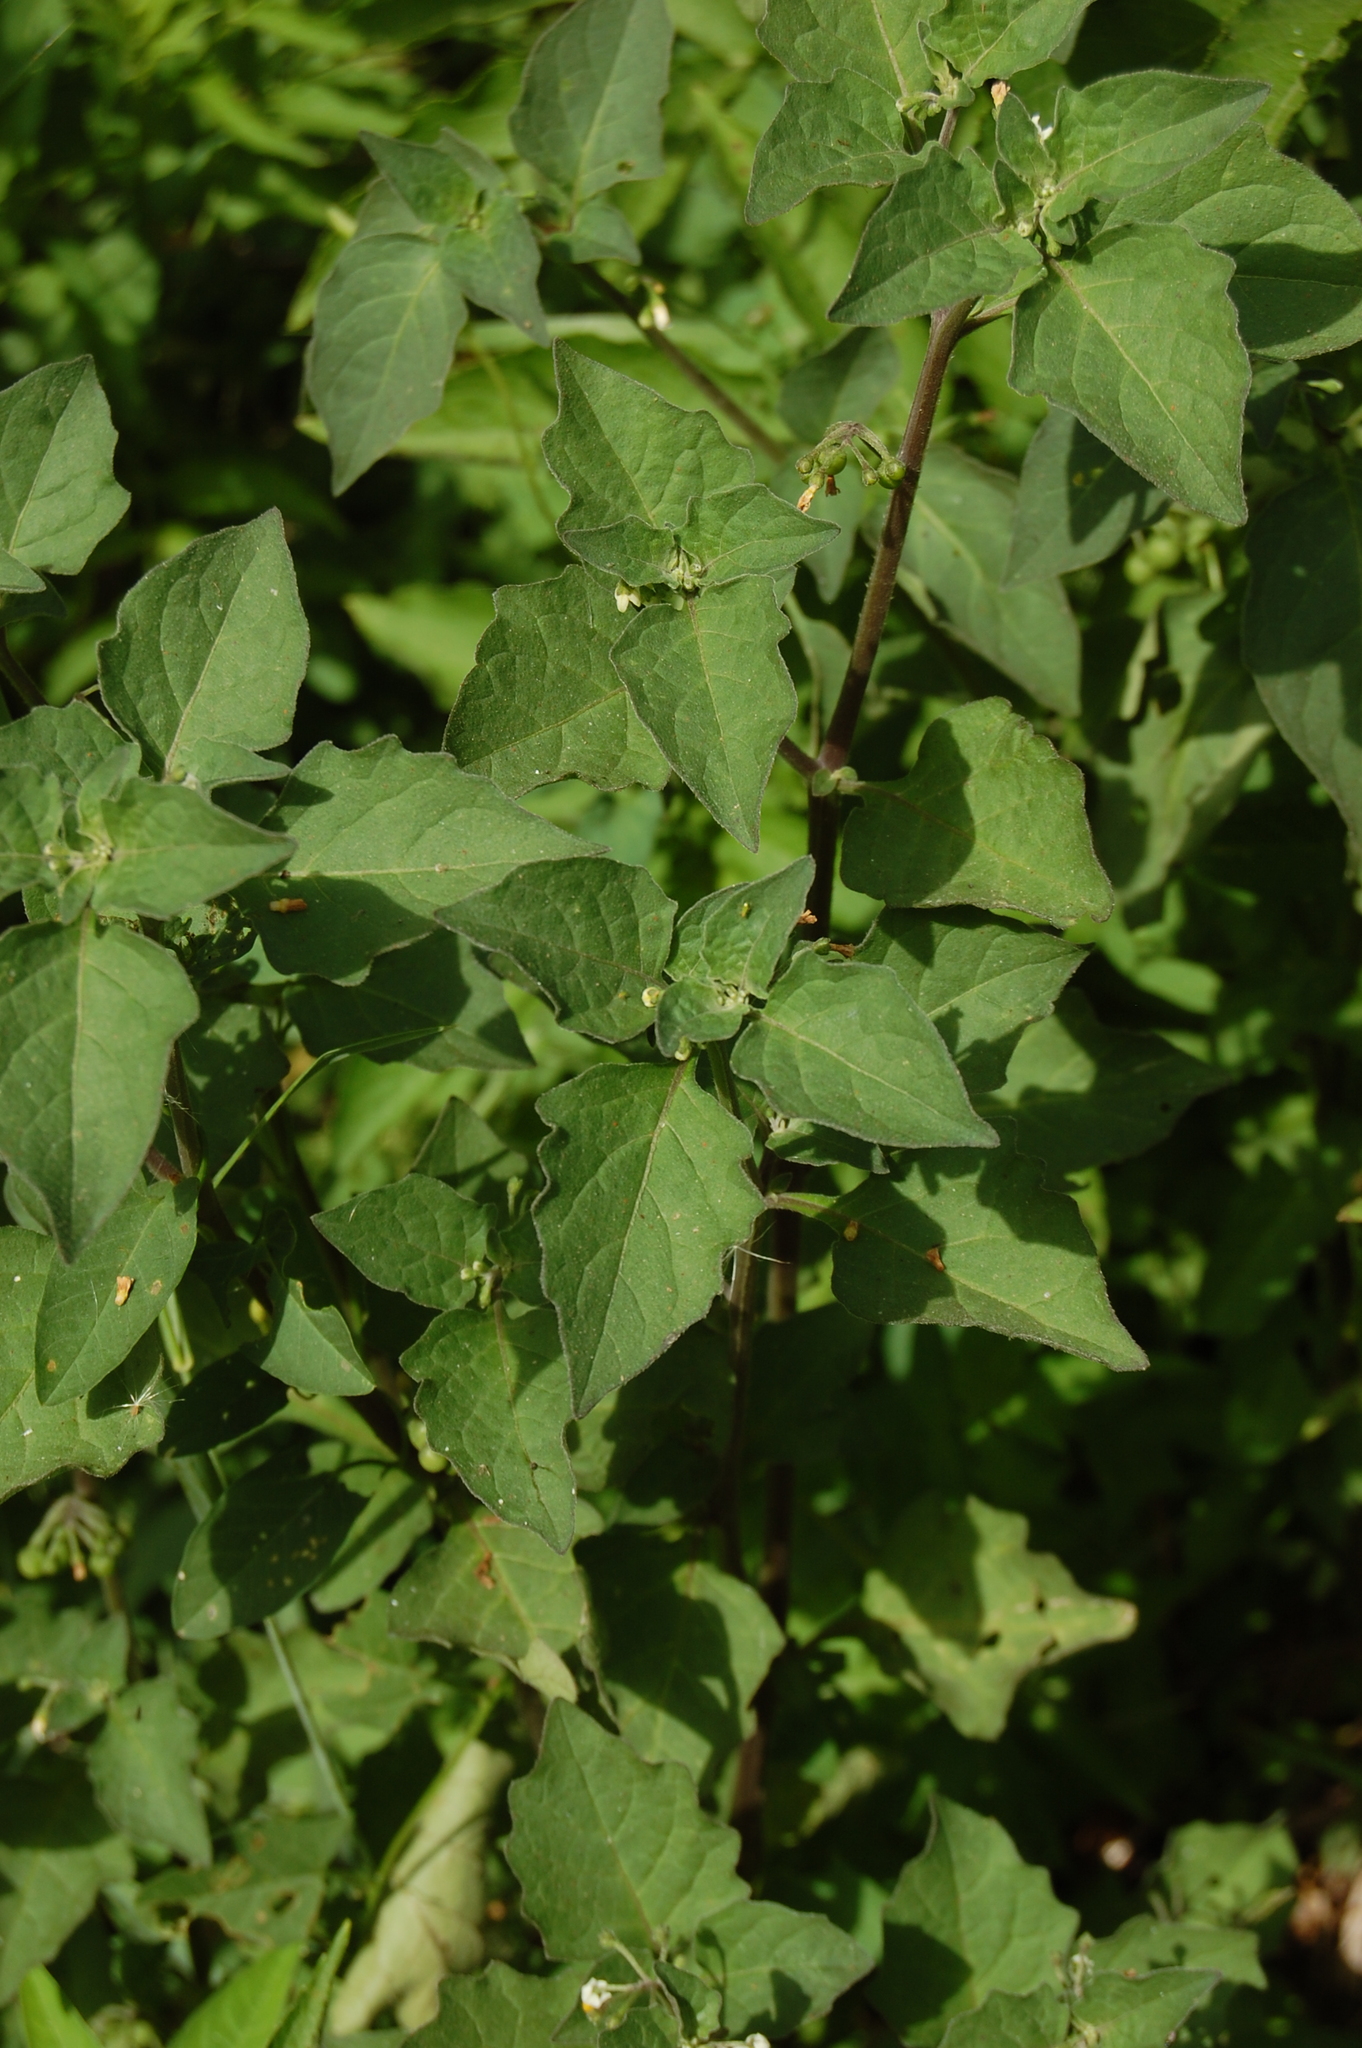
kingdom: Plantae
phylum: Tracheophyta
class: Magnoliopsida
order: Solanales
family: Solanaceae
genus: Solanum
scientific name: Solanum nigrum
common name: Black nightshade
